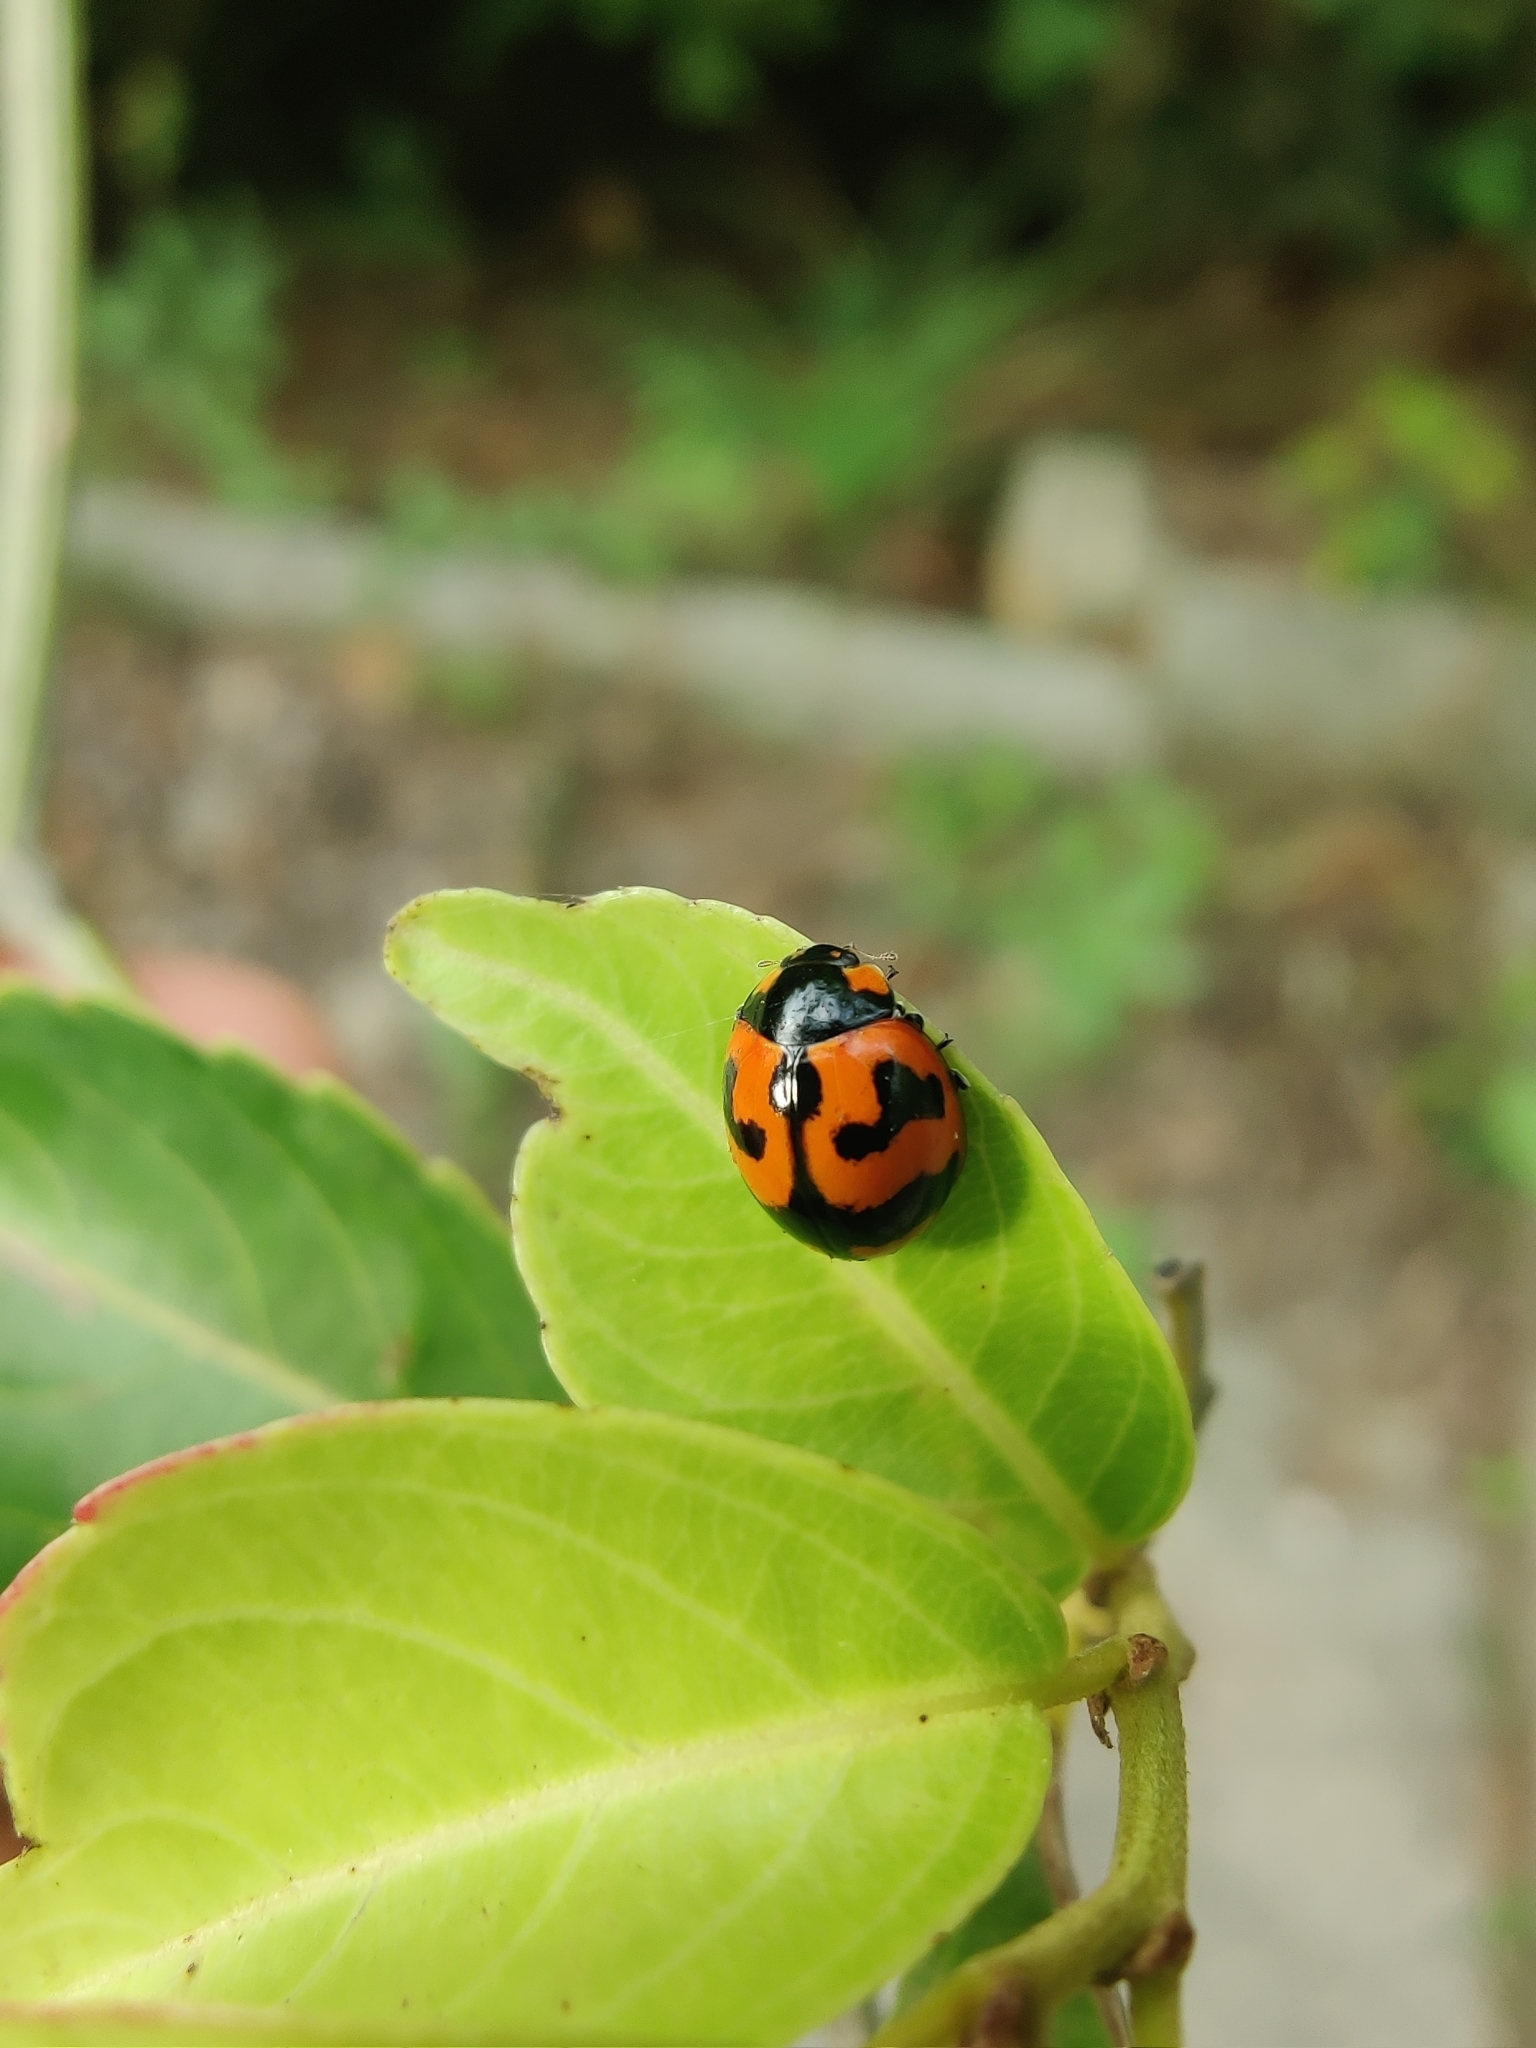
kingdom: Animalia
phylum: Arthropoda
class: Insecta
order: Coleoptera
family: Coccinellidae
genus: Coccinella
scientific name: Coccinella transversalis
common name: Transverse lady beetle
